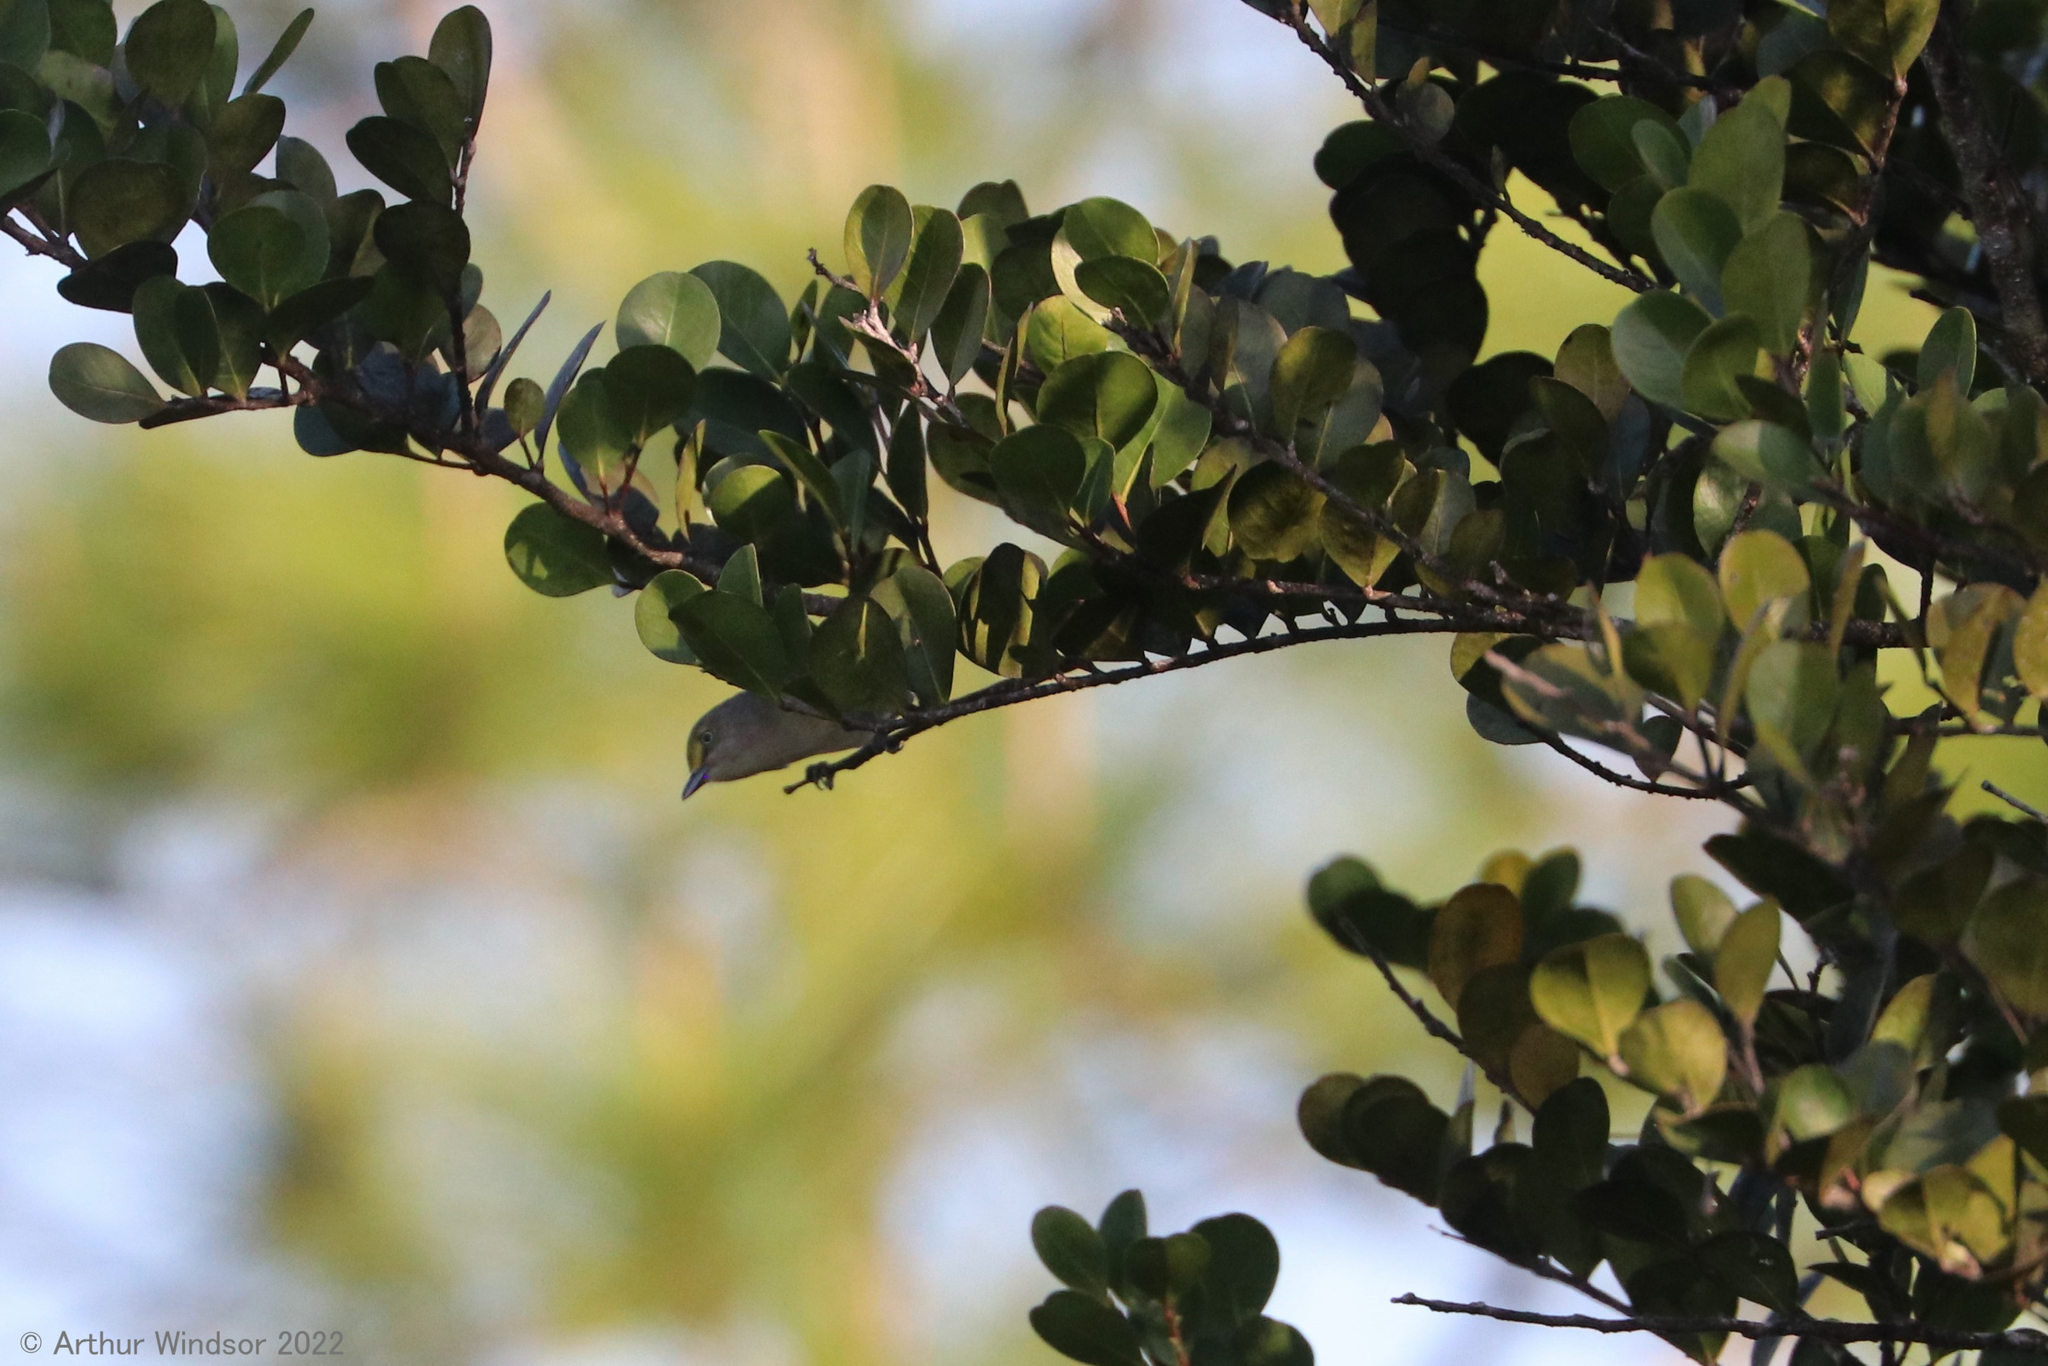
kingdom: Animalia
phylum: Chordata
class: Aves
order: Passeriformes
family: Vireonidae
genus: Vireo
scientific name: Vireo griseus
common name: White-eyed vireo
